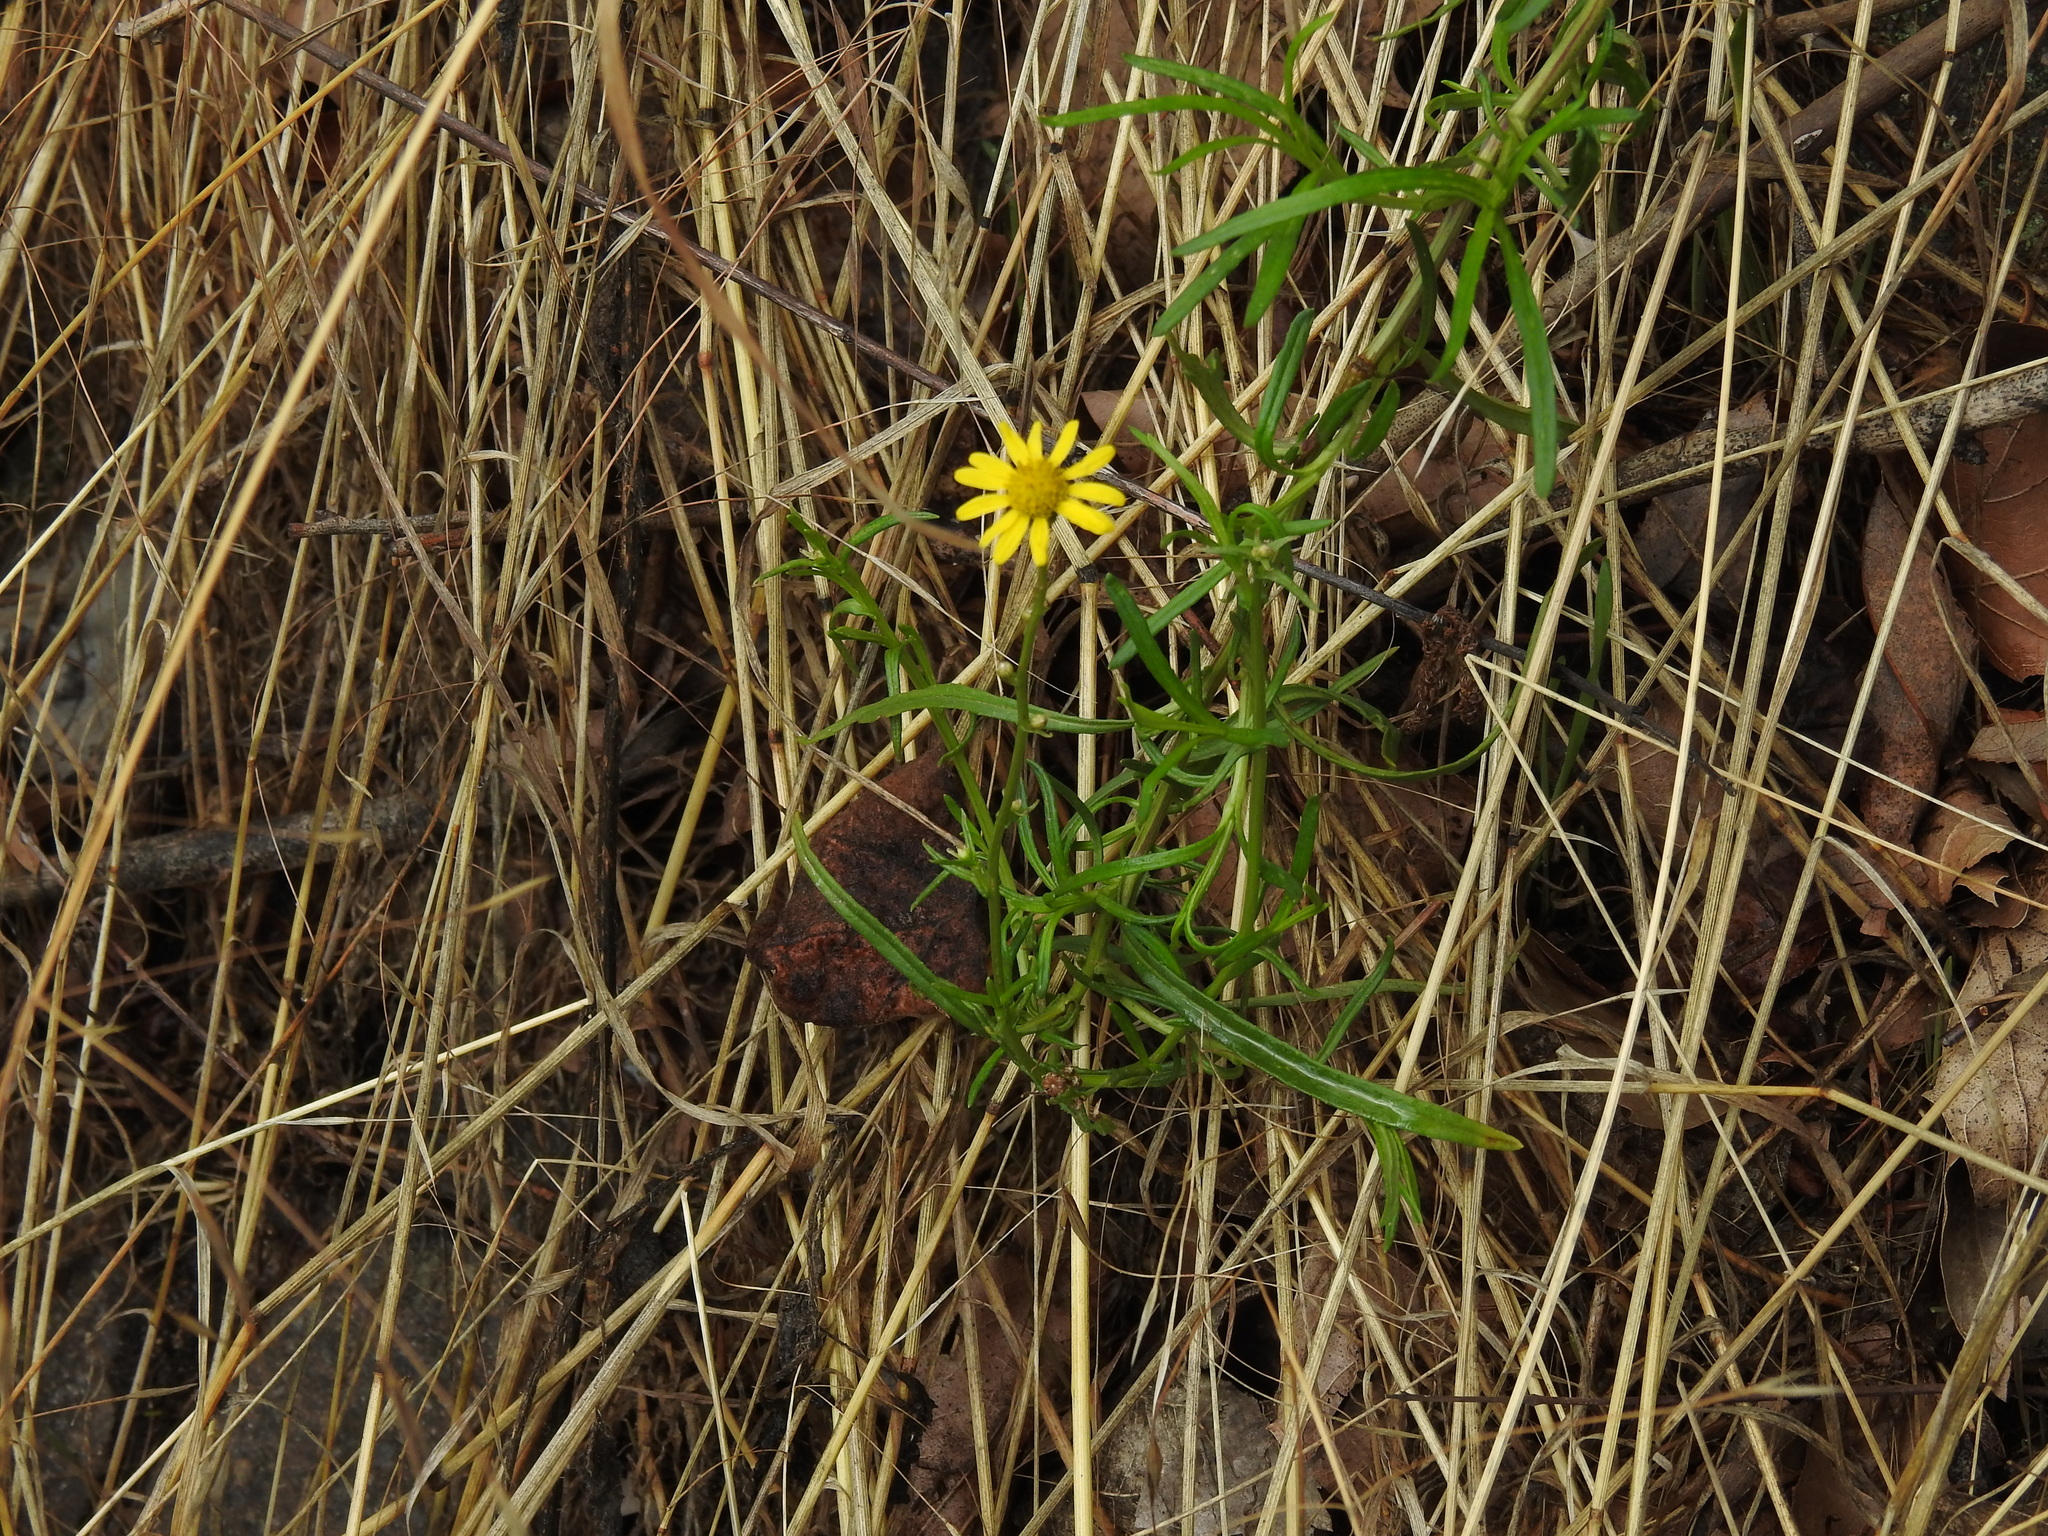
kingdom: Plantae
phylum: Tracheophyta
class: Magnoliopsida
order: Asterales
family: Asteraceae
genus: Senecio
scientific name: Senecio inaequidens
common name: Narrow-leaved ragwort
